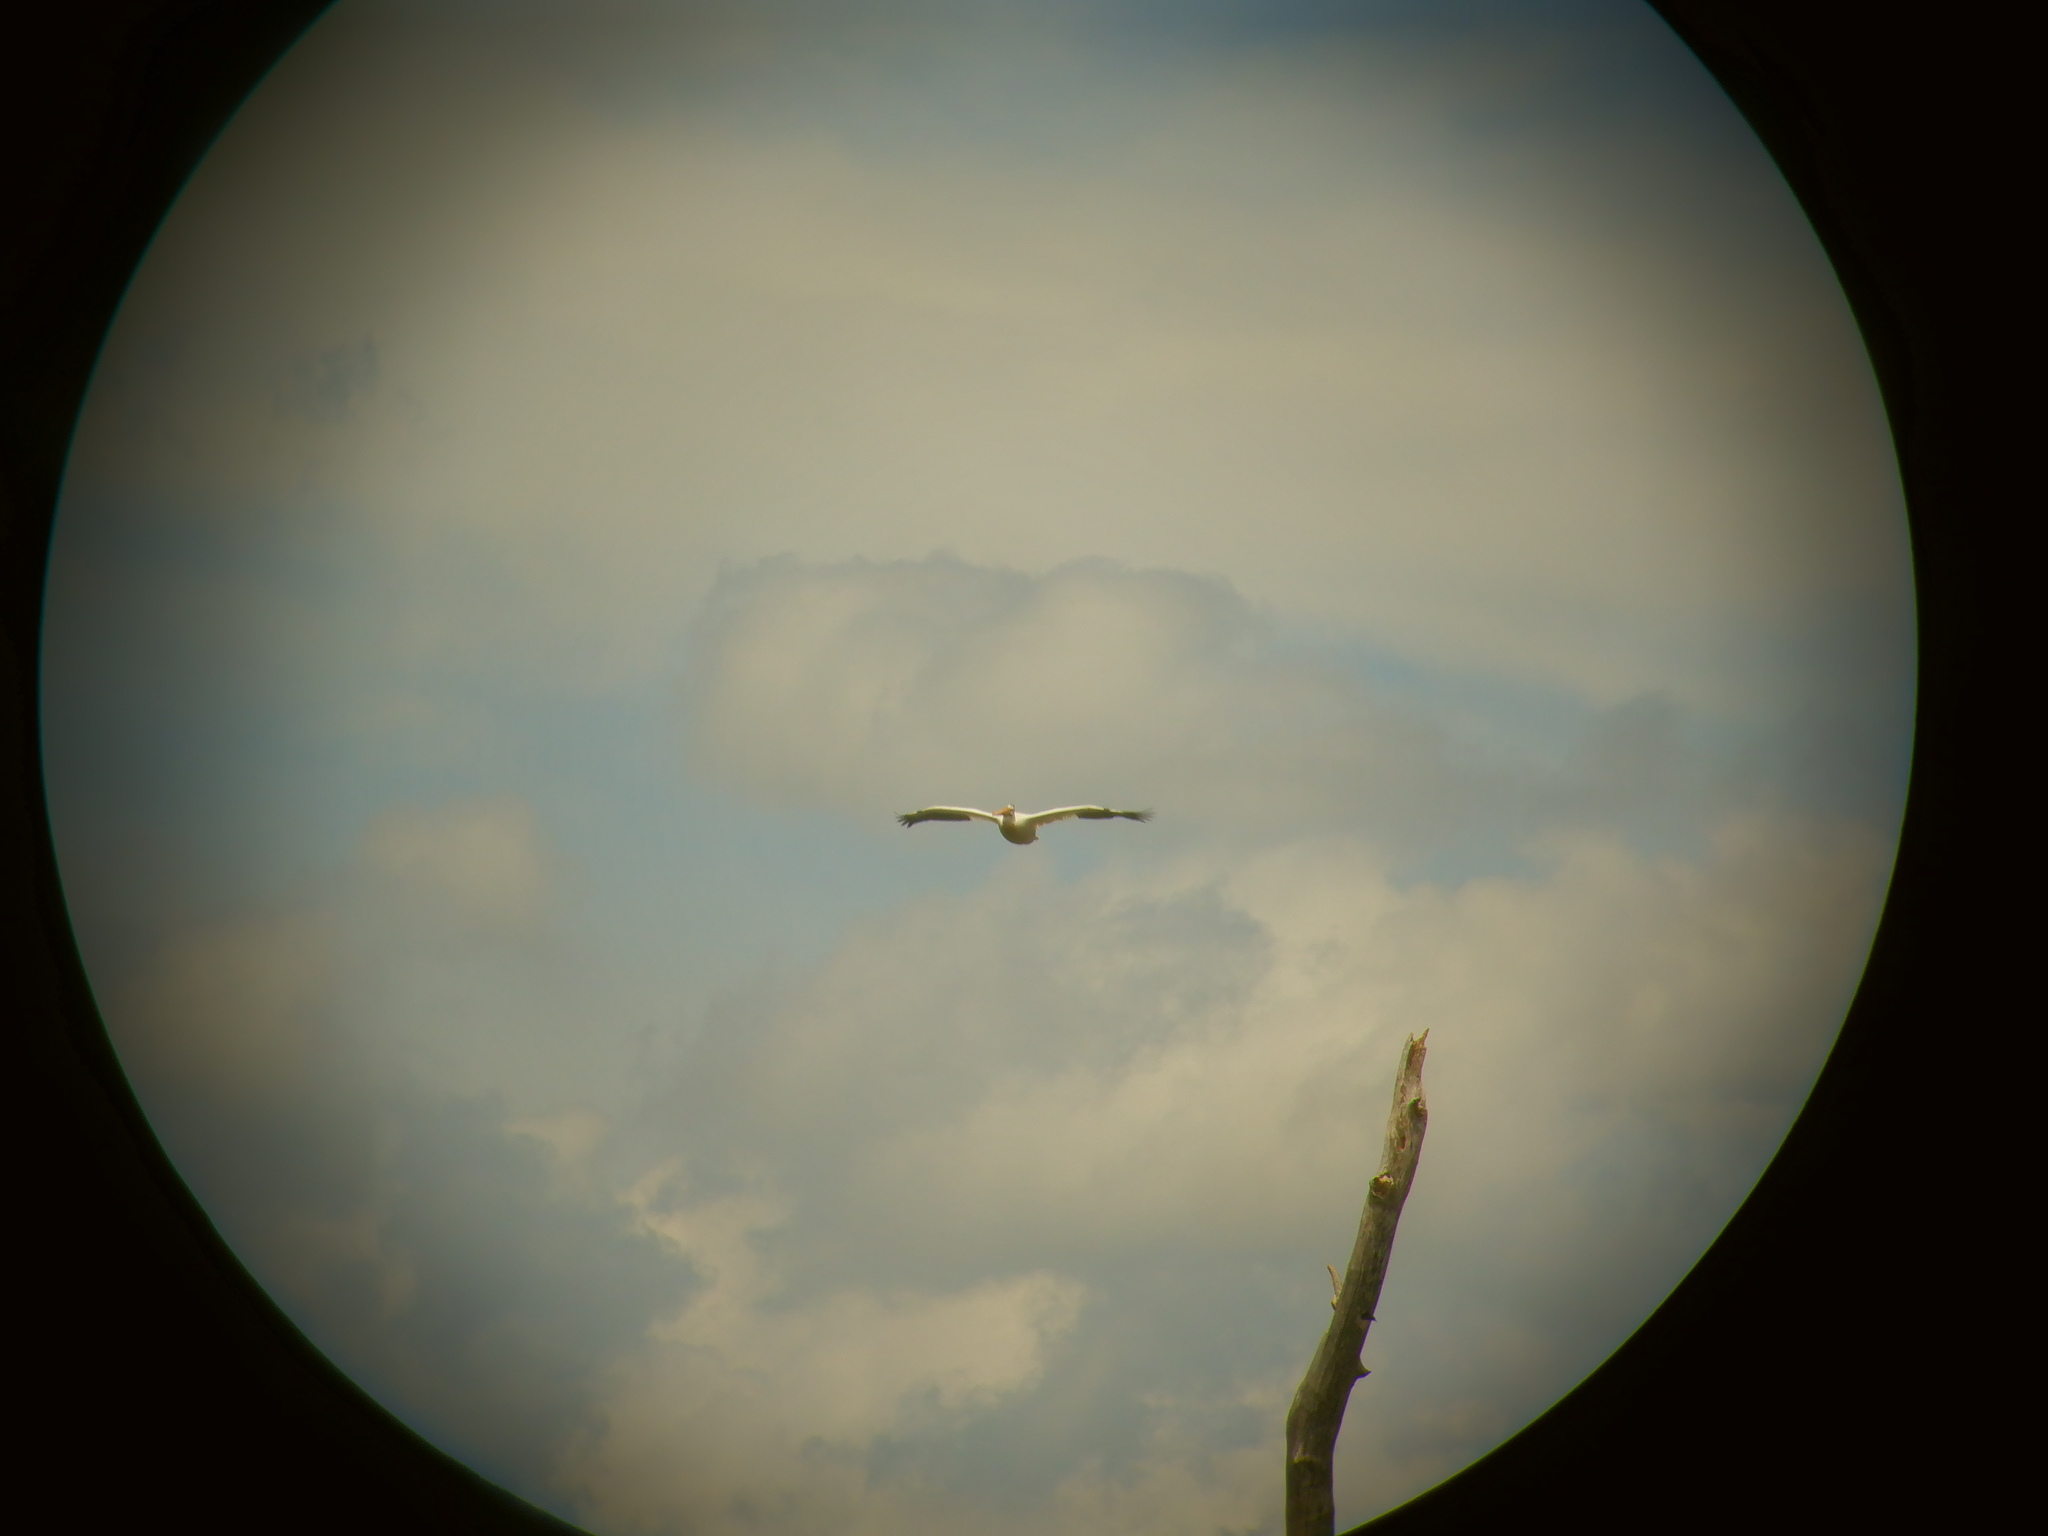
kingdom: Animalia
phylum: Chordata
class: Aves
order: Pelecaniformes
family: Pelecanidae
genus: Pelecanus
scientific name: Pelecanus erythrorhynchos
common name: American white pelican
